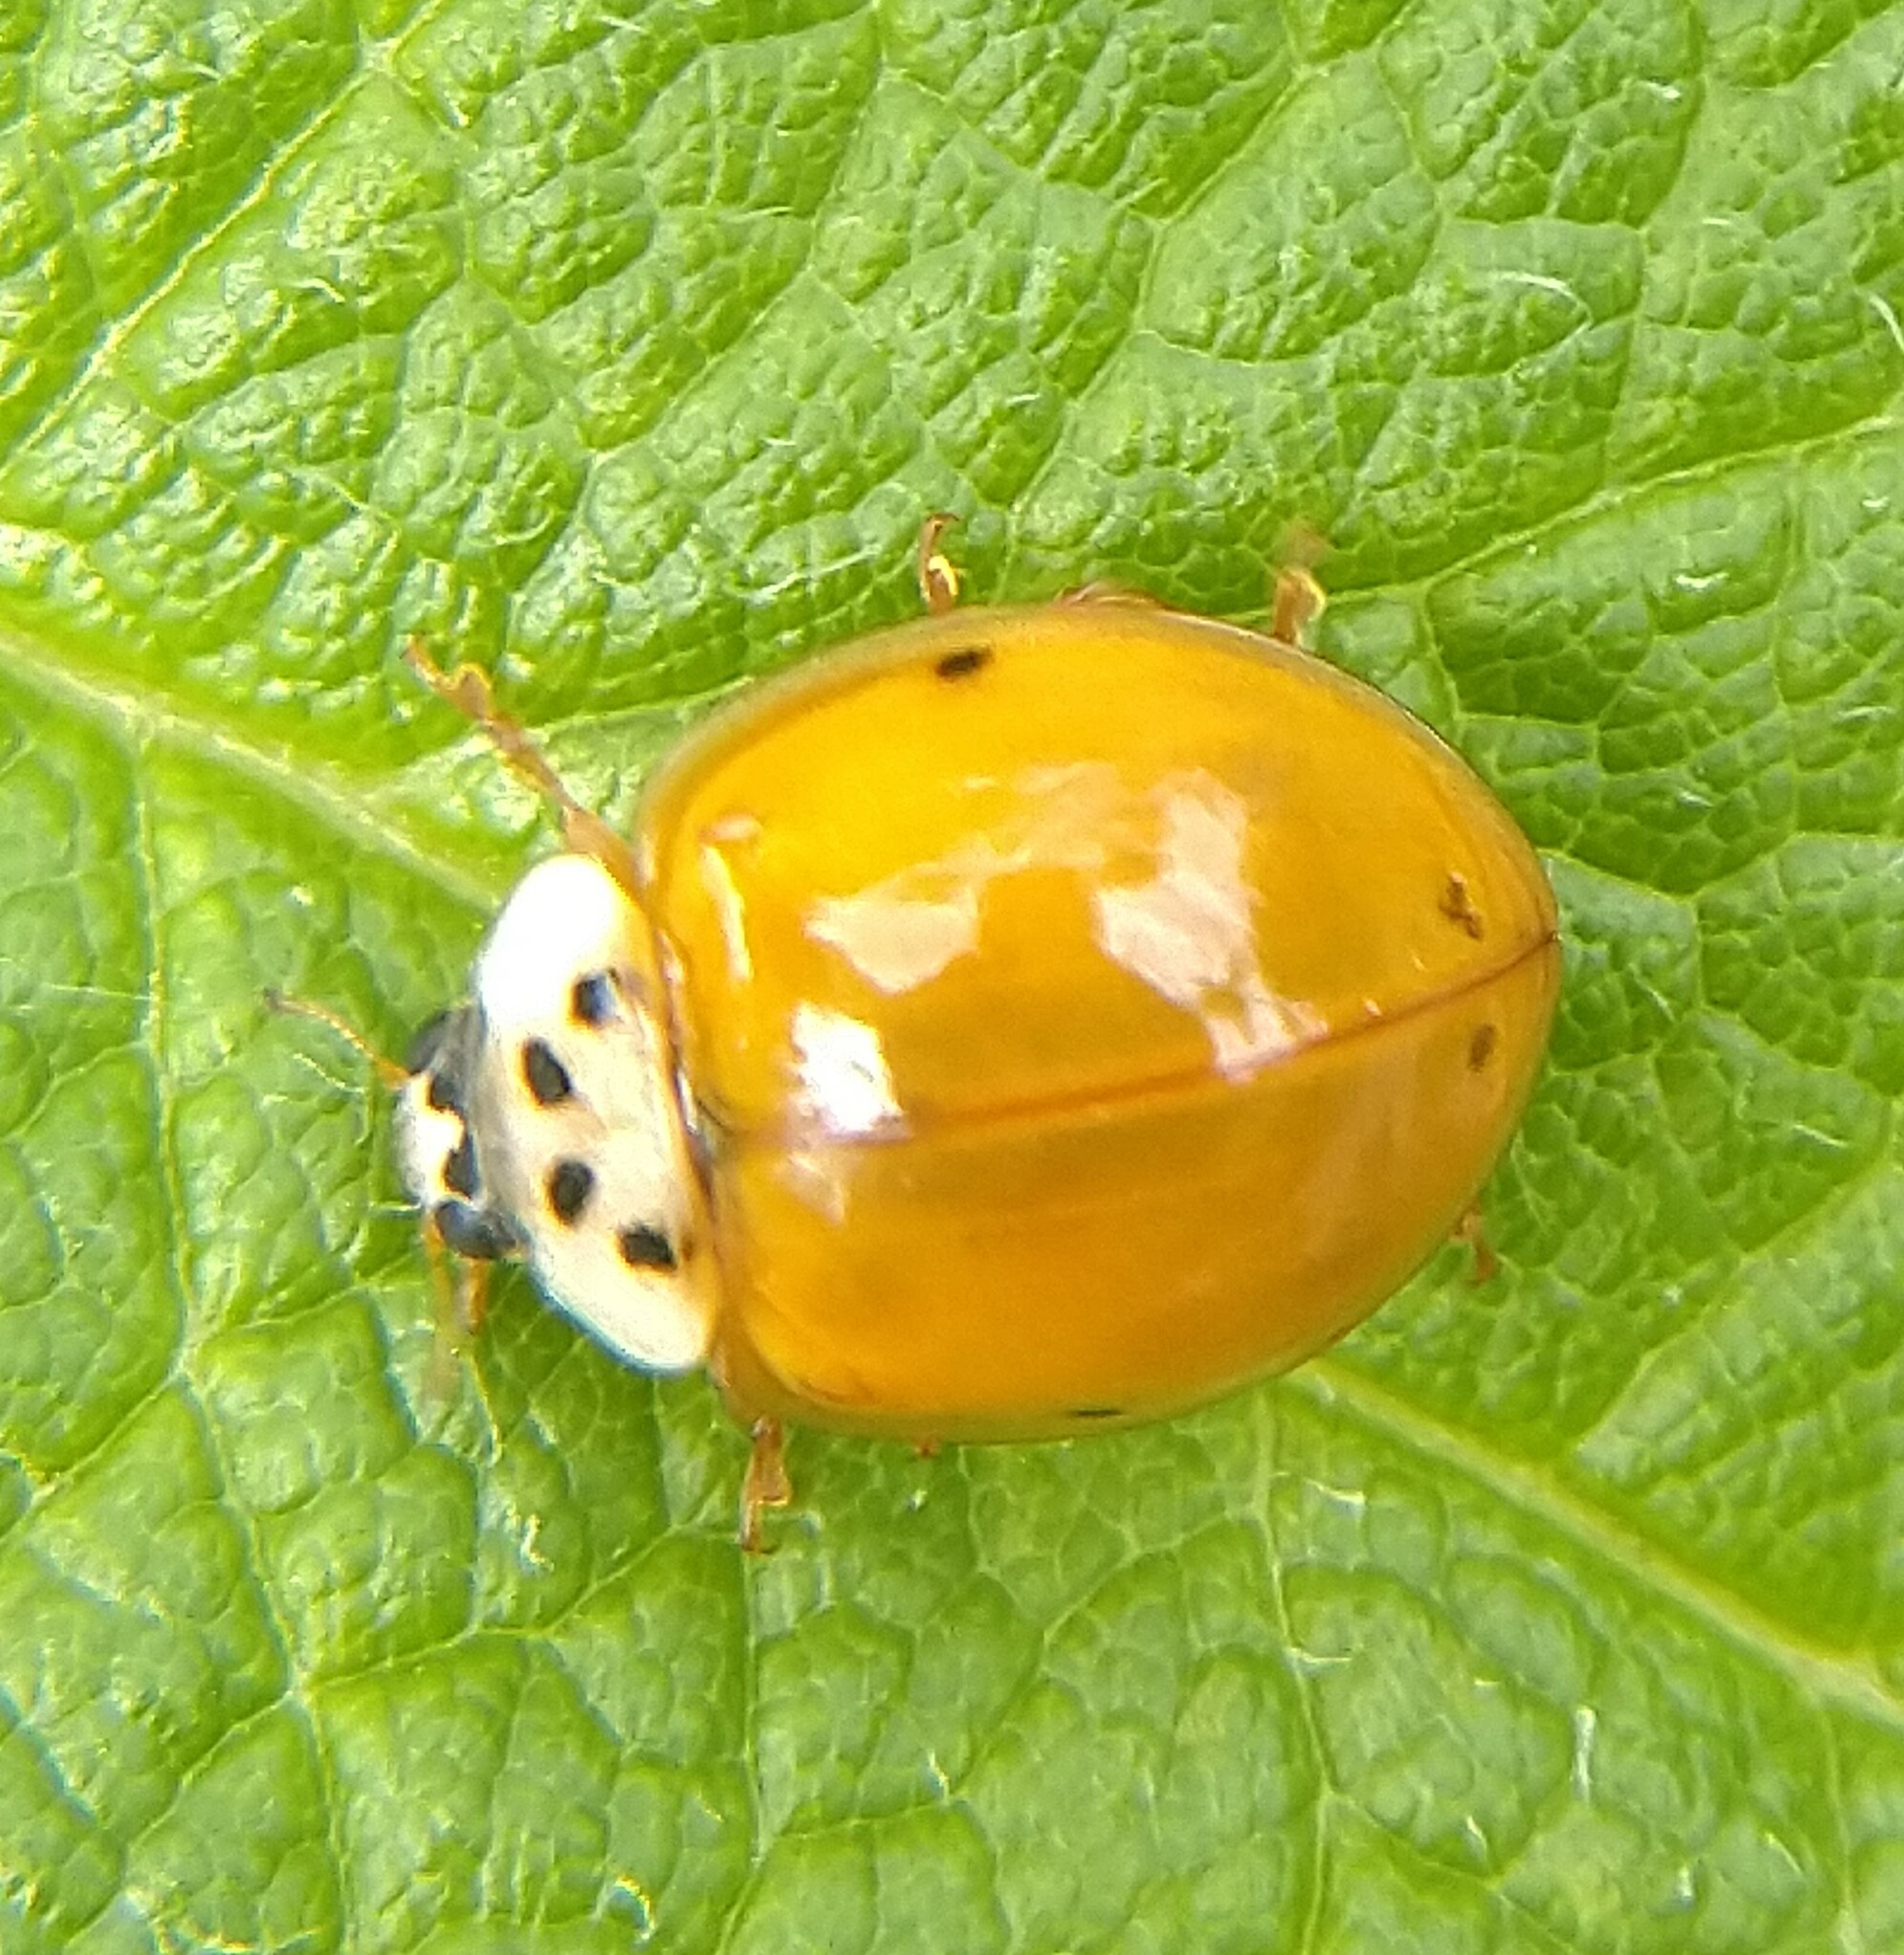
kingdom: Animalia
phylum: Arthropoda
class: Insecta
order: Coleoptera
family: Coccinellidae
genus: Harmonia
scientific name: Harmonia axyridis
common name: Harlequin ladybird
